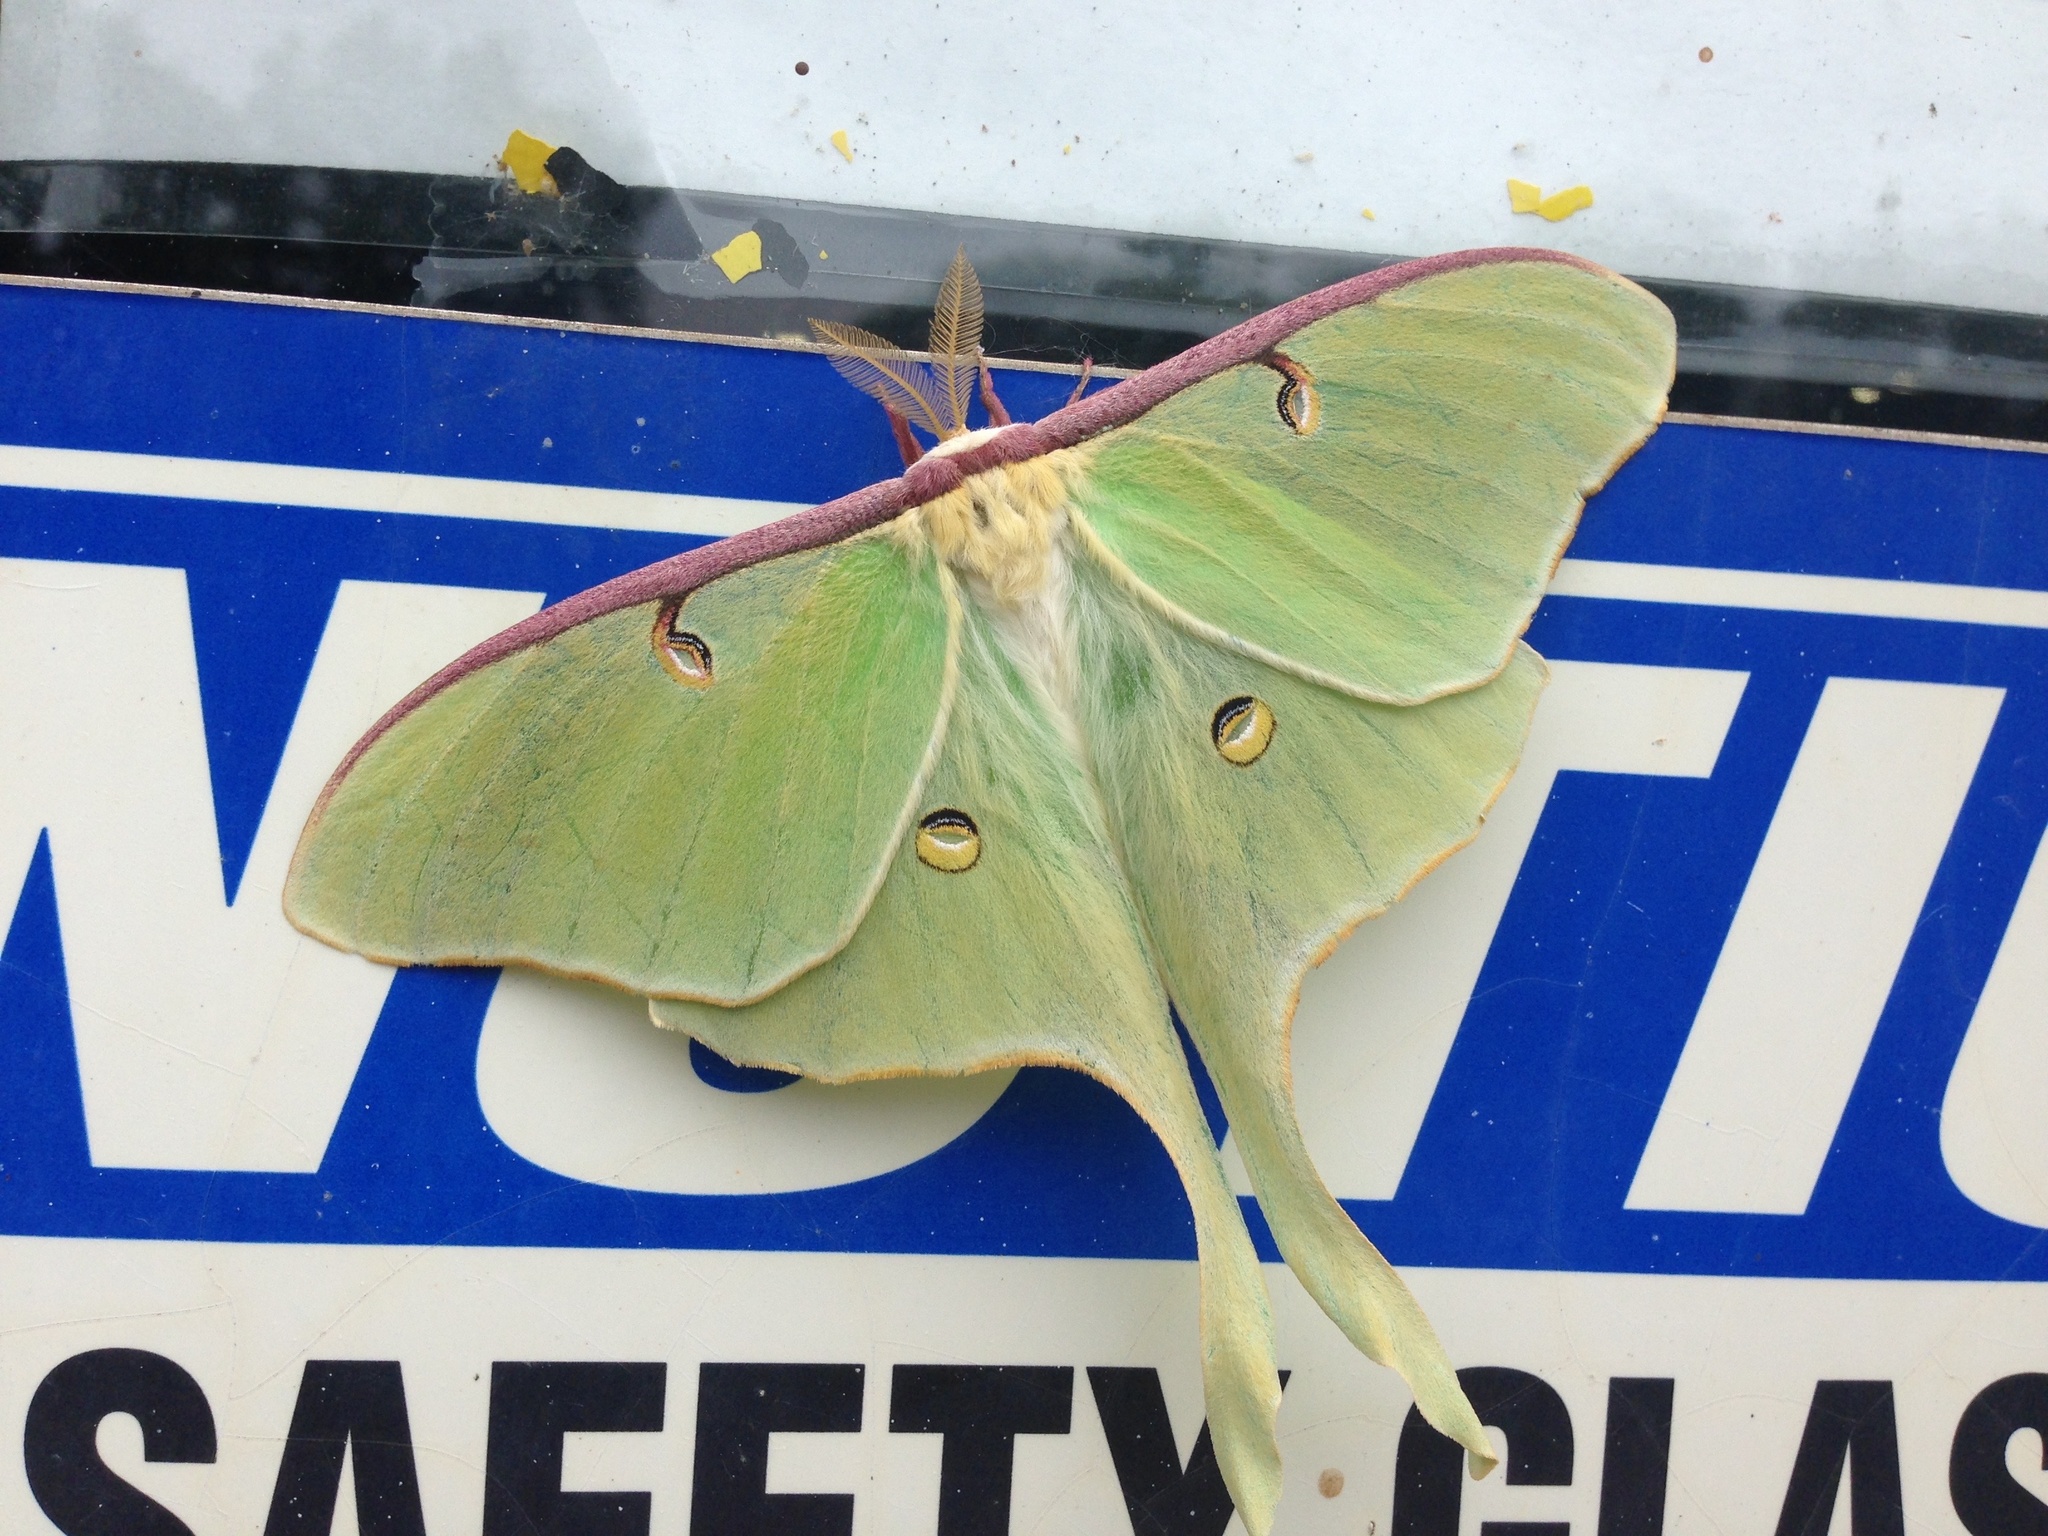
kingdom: Animalia
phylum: Arthropoda
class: Insecta
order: Lepidoptera
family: Saturniidae
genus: Actias
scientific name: Actias luna
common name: Luna moth
